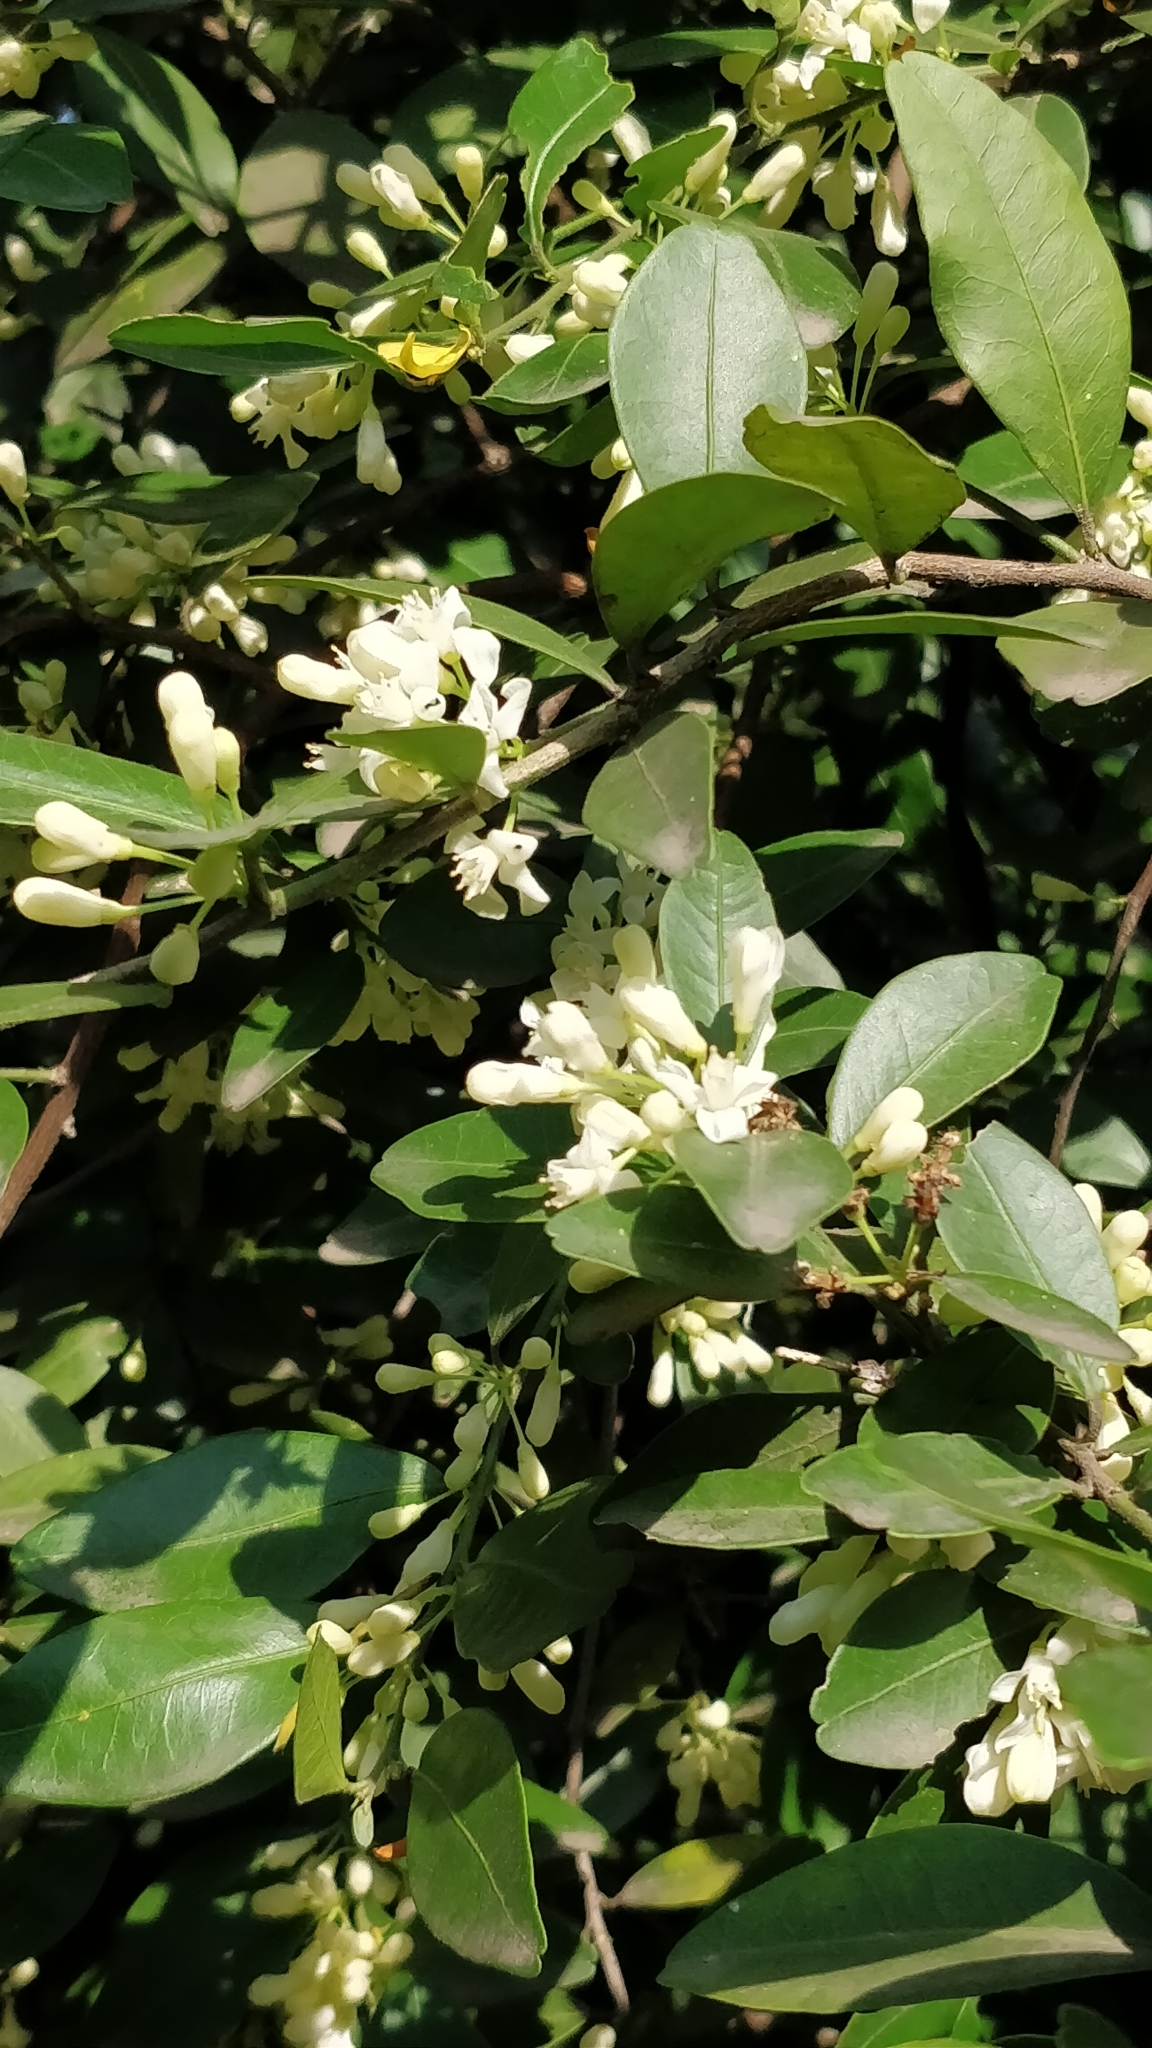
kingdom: Plantae
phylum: Tracheophyta
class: Magnoliopsida
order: Sapindales
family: Rutaceae
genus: Atalantia
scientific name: Atalantia monophylla
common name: Indian-atalantia
